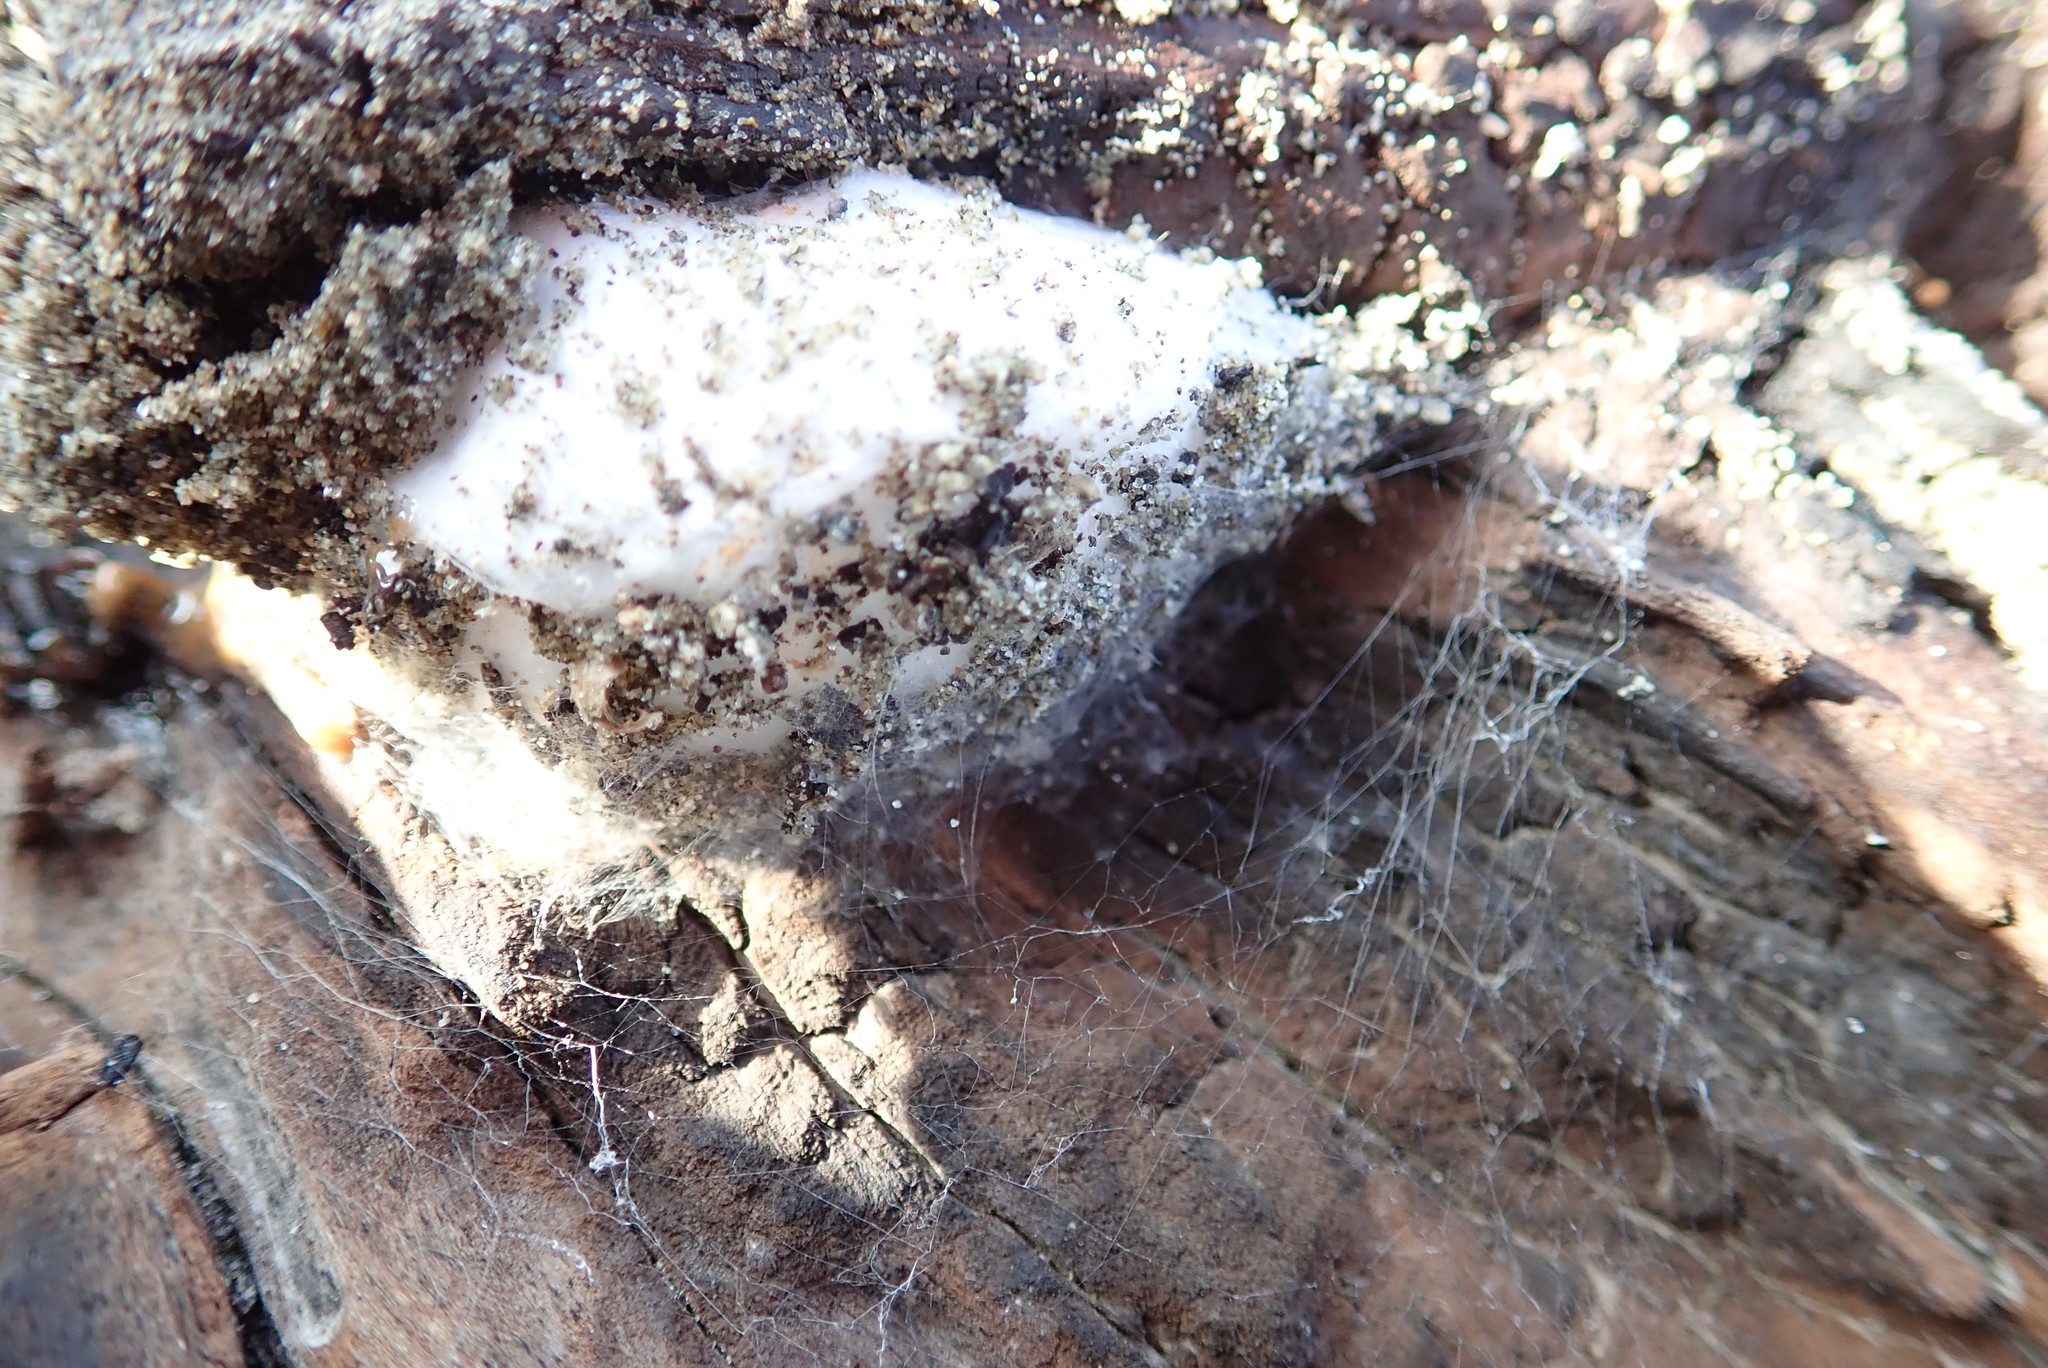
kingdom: Animalia
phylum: Arthropoda
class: Arachnida
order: Araneae
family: Theridiidae
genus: Steatoda
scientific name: Steatoda capensis
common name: Cobweb weaver
